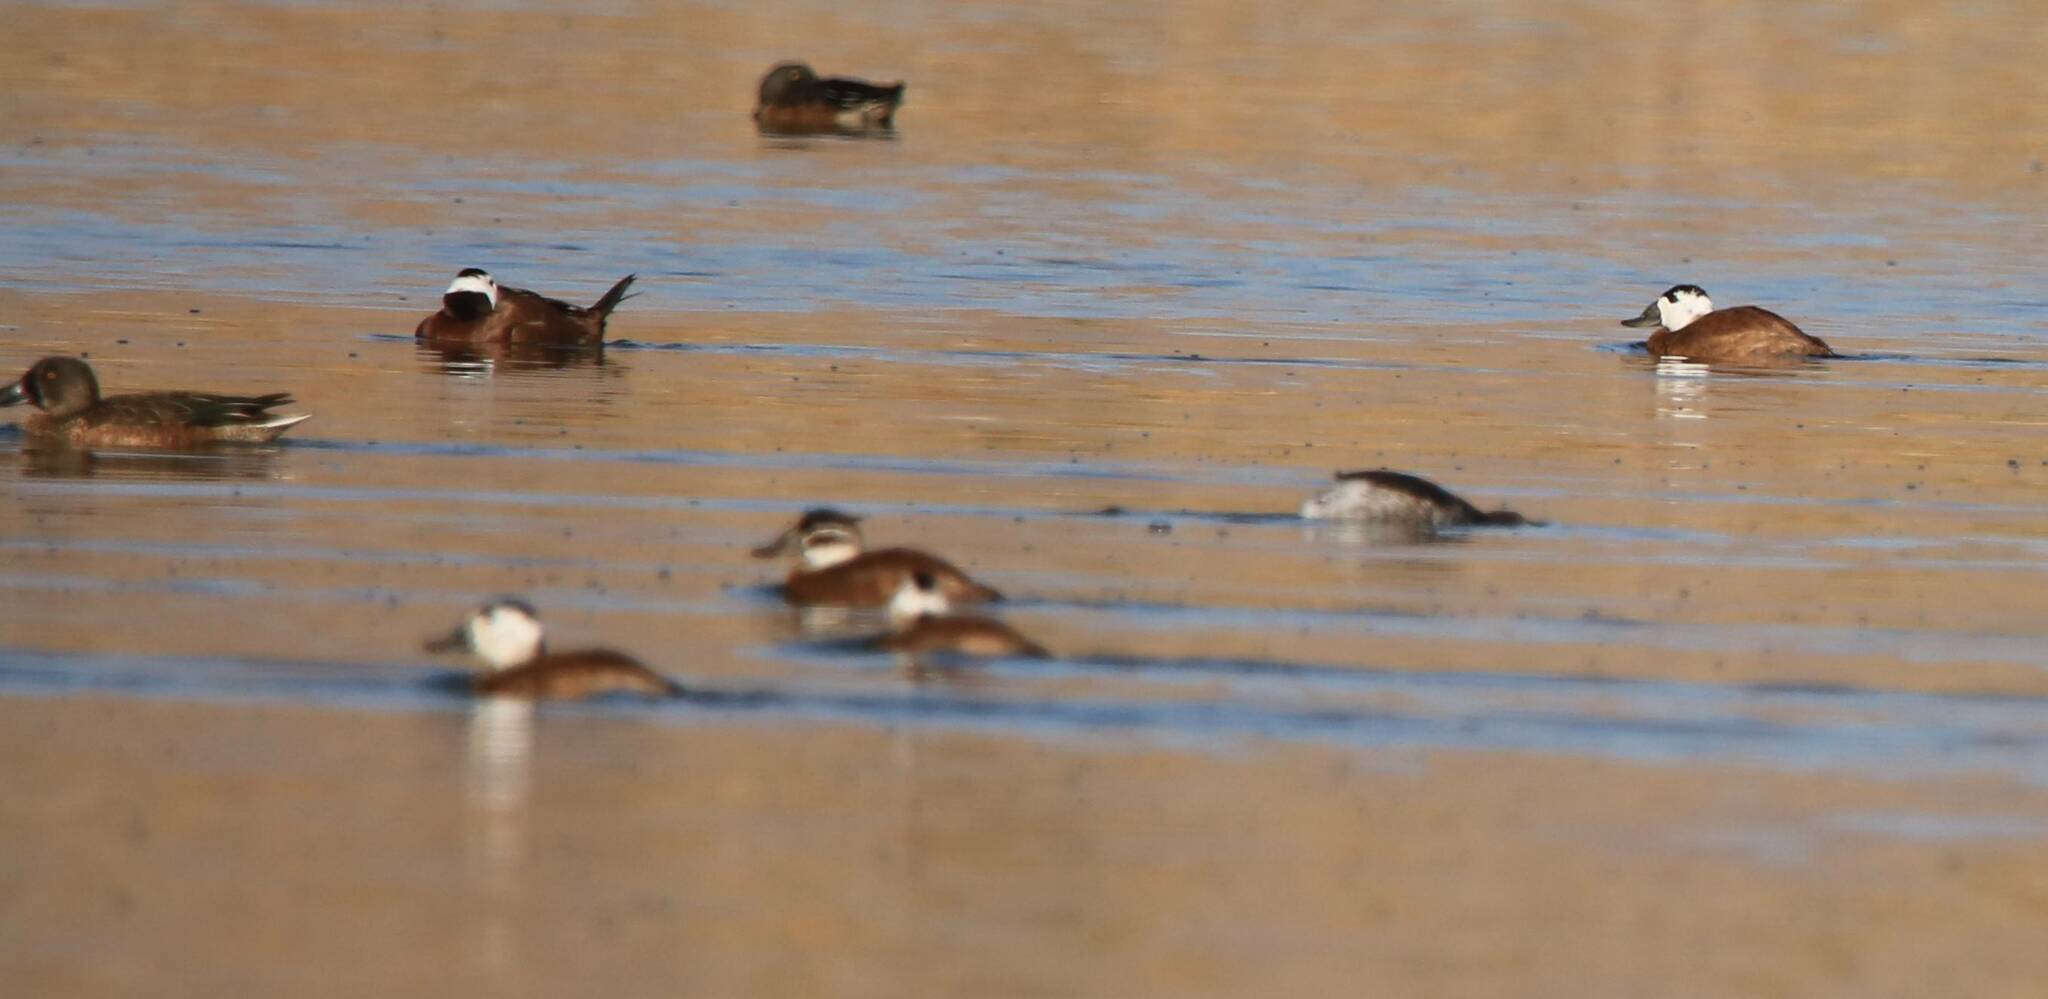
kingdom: Animalia
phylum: Chordata
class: Aves
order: Anseriformes
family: Anatidae
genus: Oxyura
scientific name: Oxyura leucocephala
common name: White-headed duck
